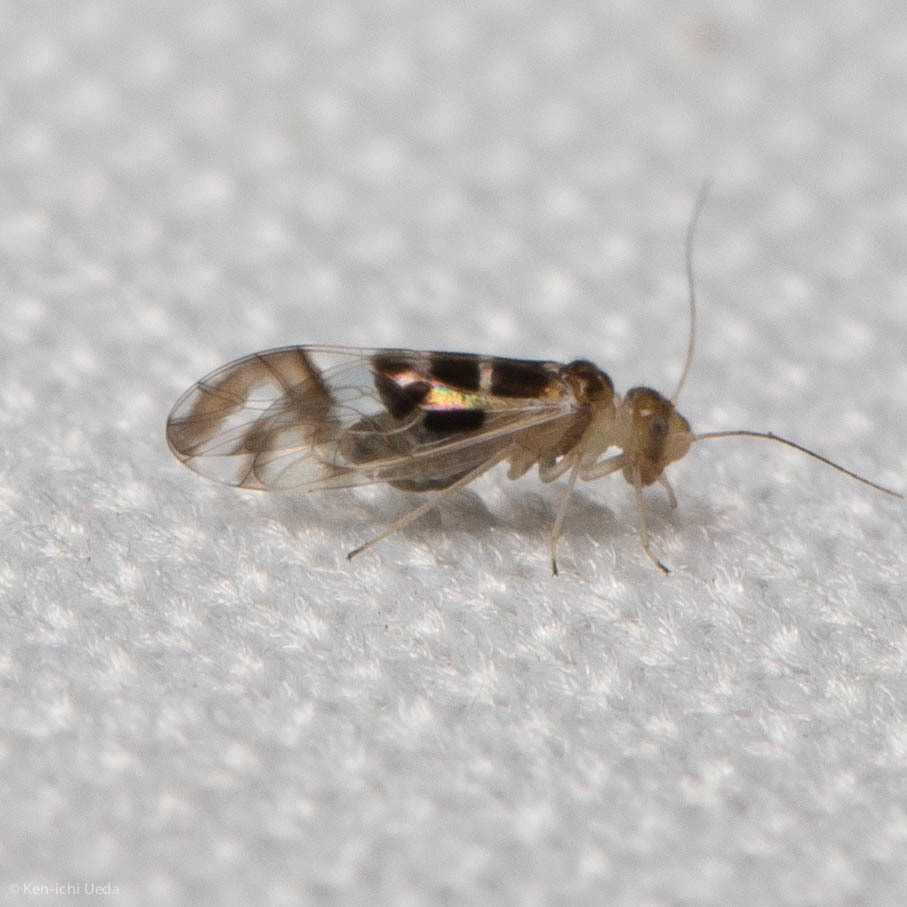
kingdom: Animalia
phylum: Arthropoda
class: Insecta
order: Psocodea
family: Stenopsocidae
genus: Graphopsocus
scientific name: Graphopsocus cruciatus
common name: Lizard bark louse
